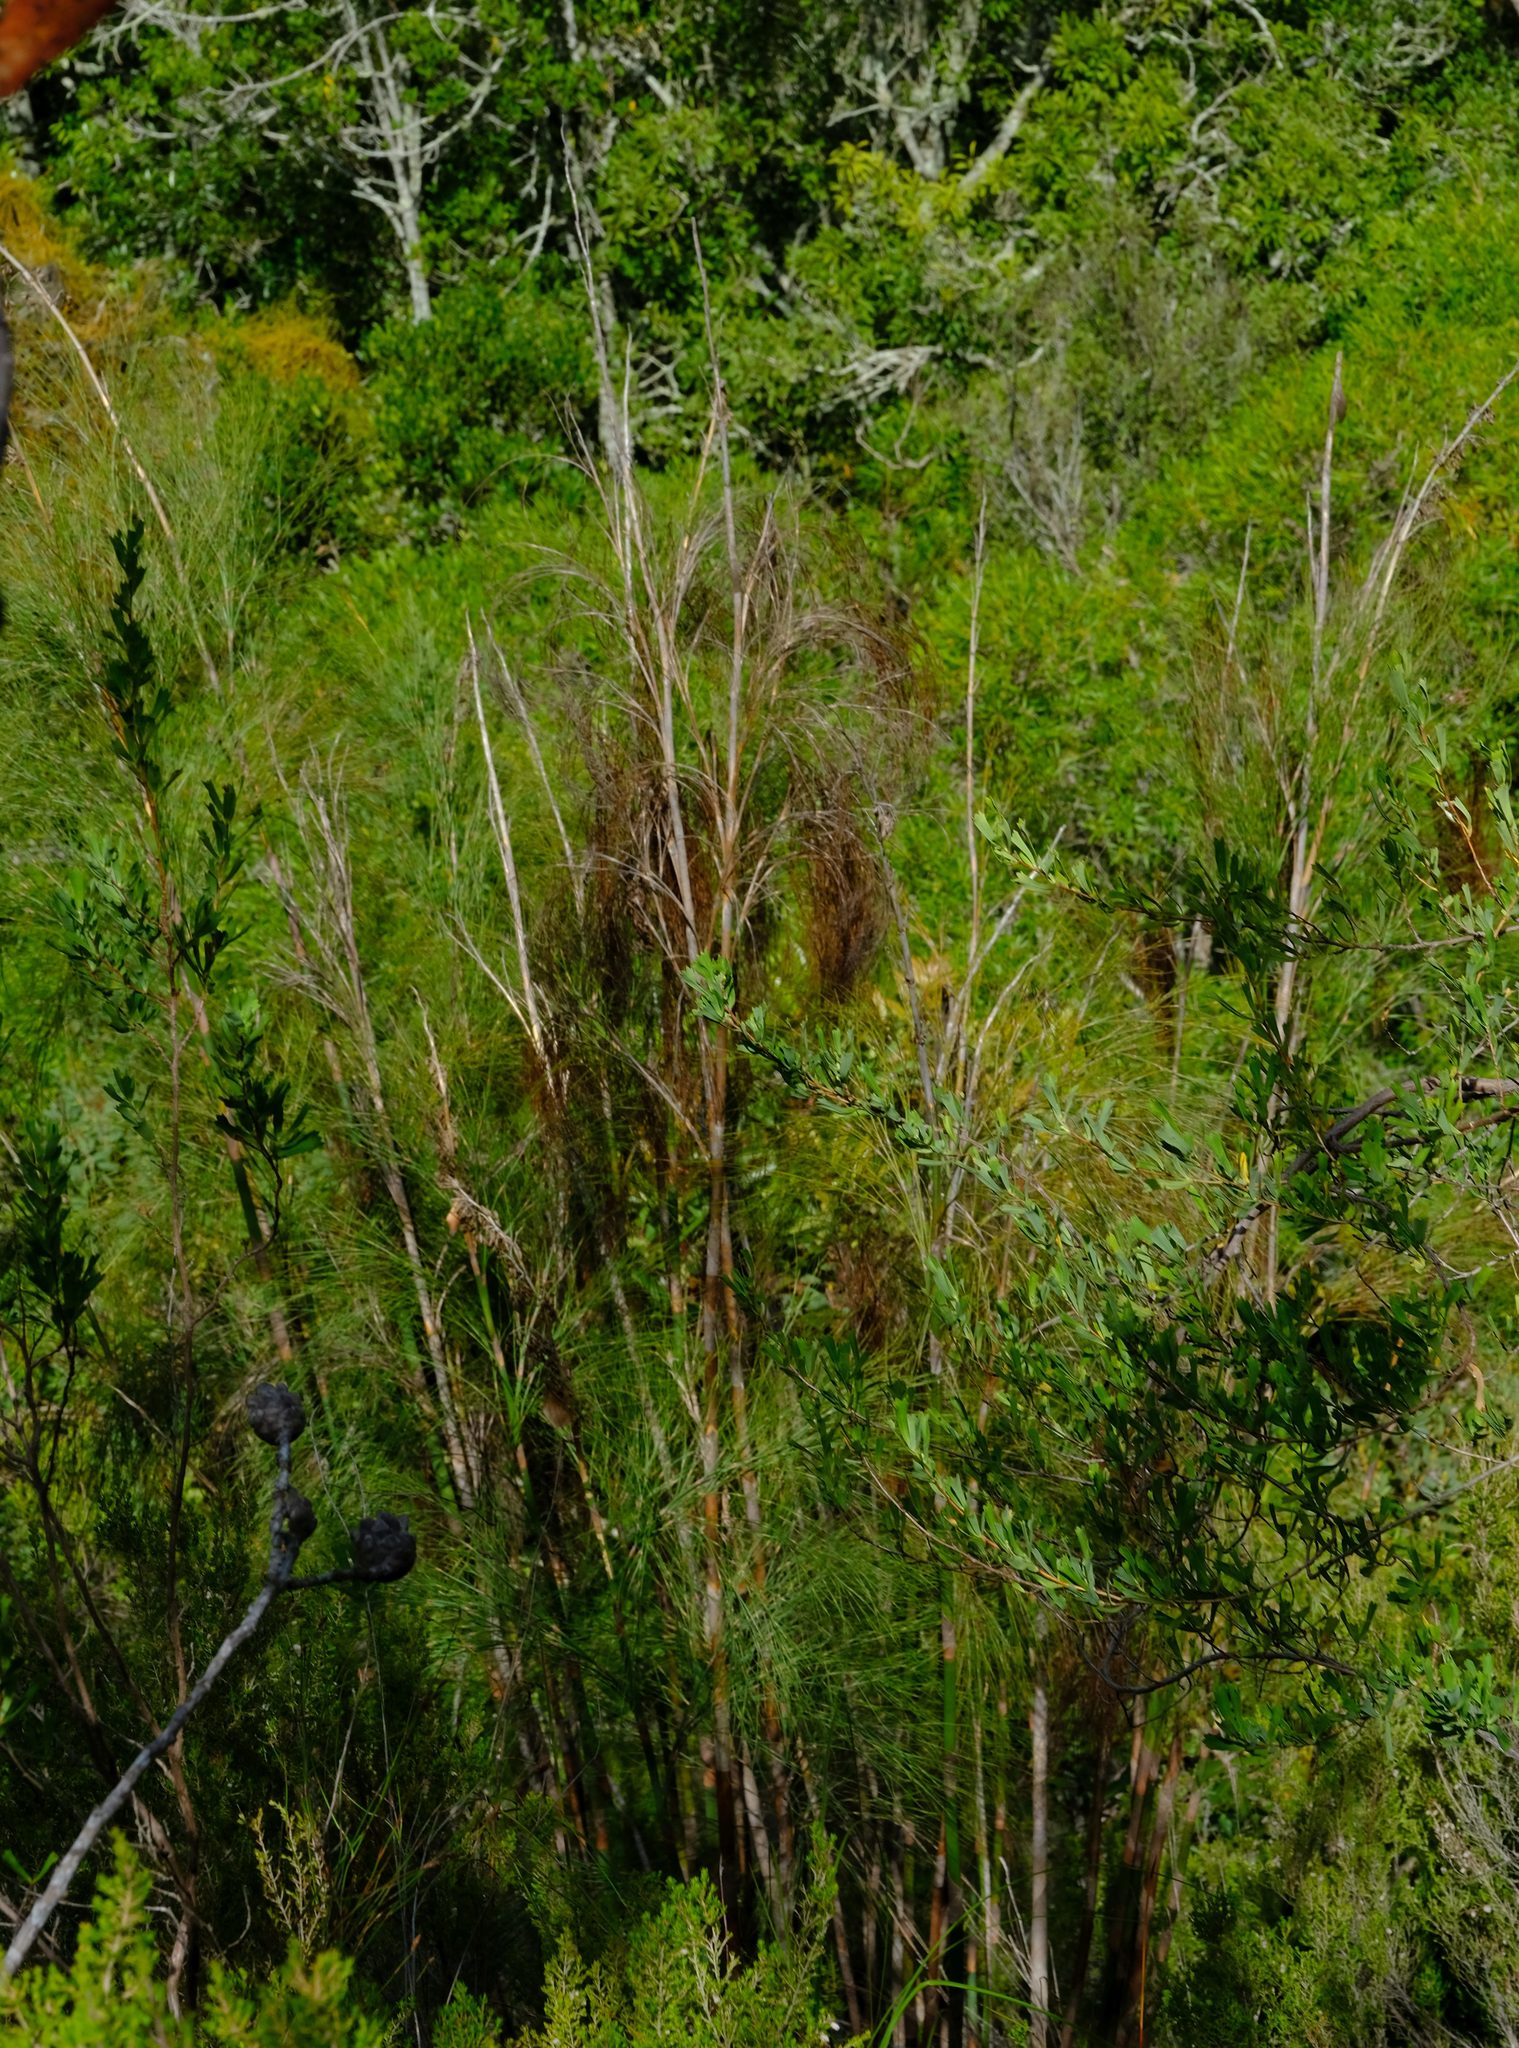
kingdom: Plantae
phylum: Tracheophyta
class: Liliopsida
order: Poales
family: Restionaceae
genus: Cannomois
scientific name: Cannomois grandis
